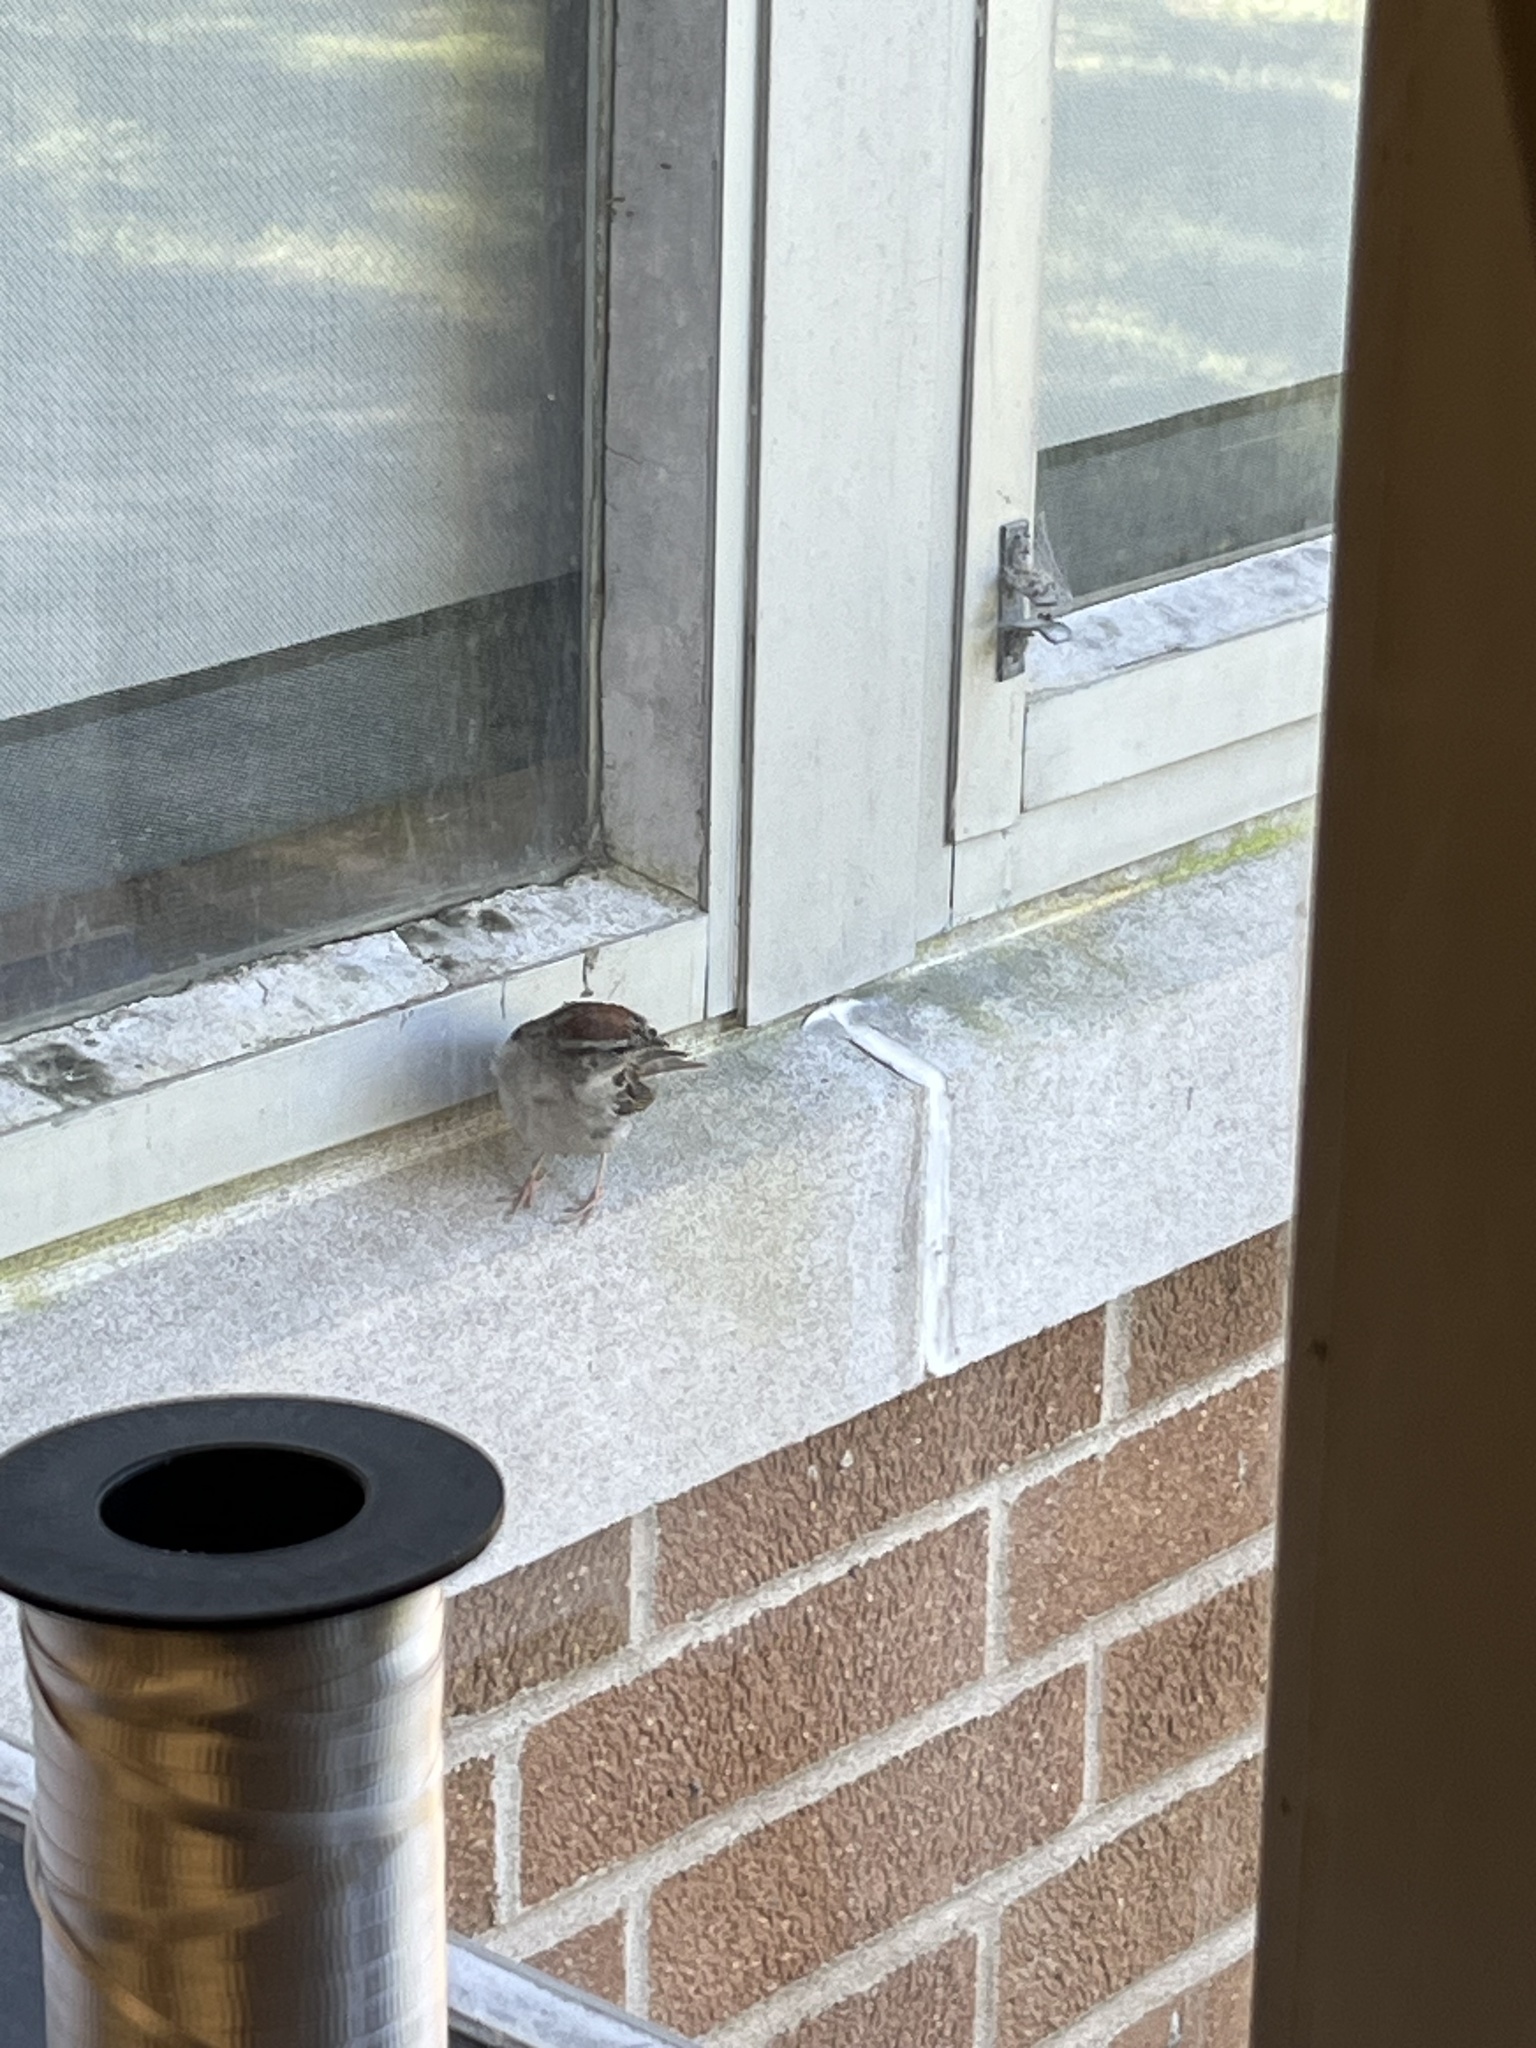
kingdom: Animalia
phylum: Chordata
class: Aves
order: Passeriformes
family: Passerellidae
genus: Spizella
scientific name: Spizella passerina
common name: Chipping sparrow
